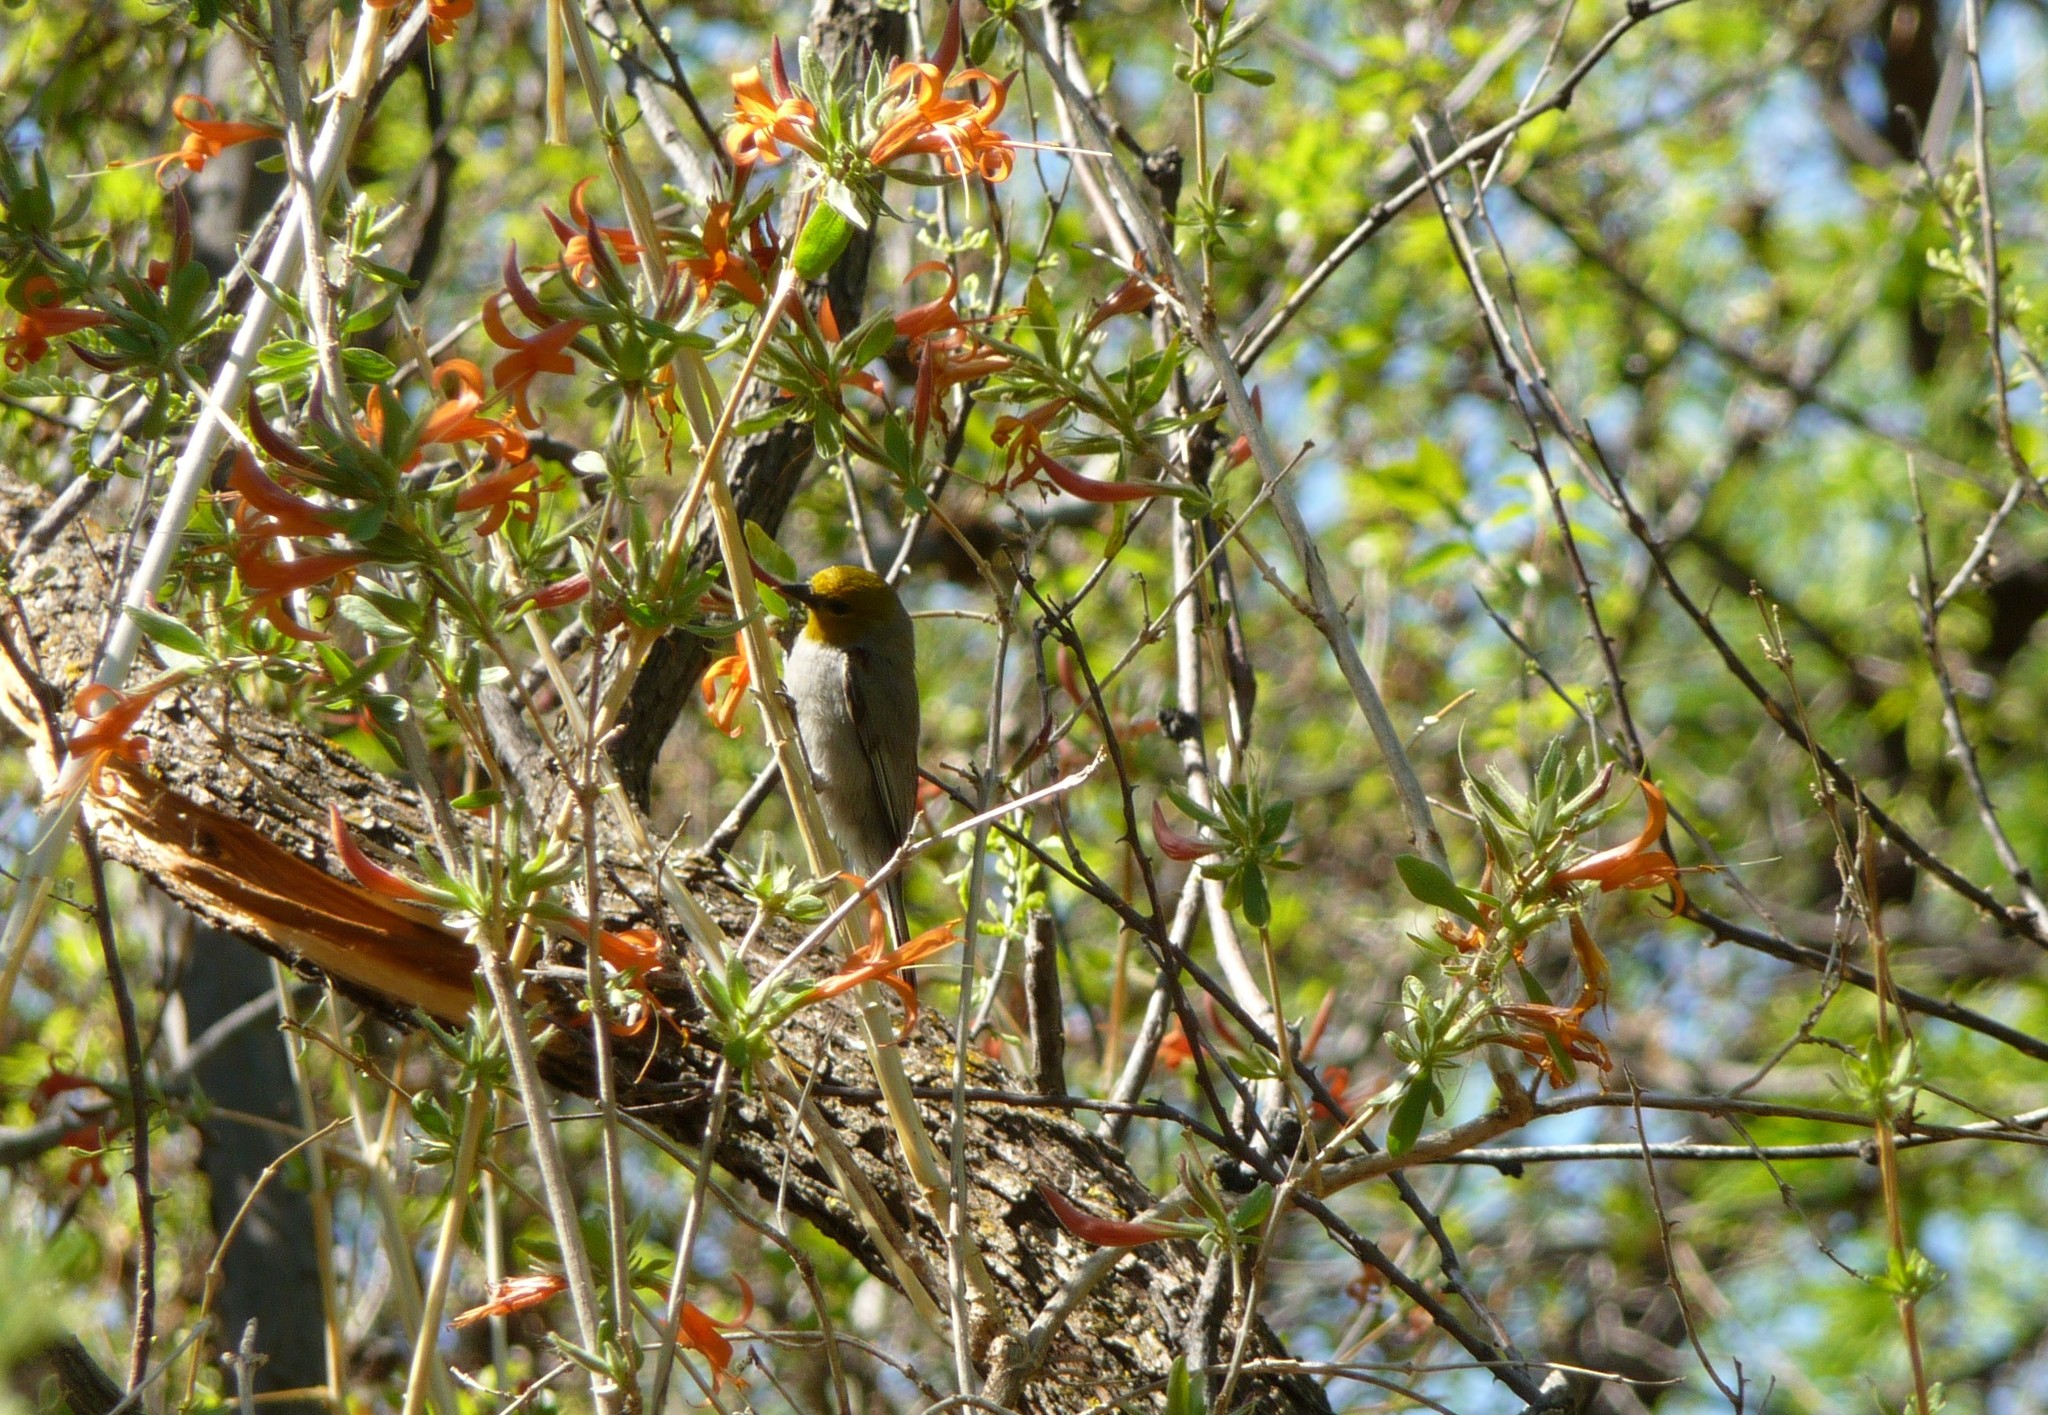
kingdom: Animalia
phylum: Chordata
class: Aves
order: Passeriformes
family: Remizidae
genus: Auriparus
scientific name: Auriparus flaviceps
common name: Verdin
